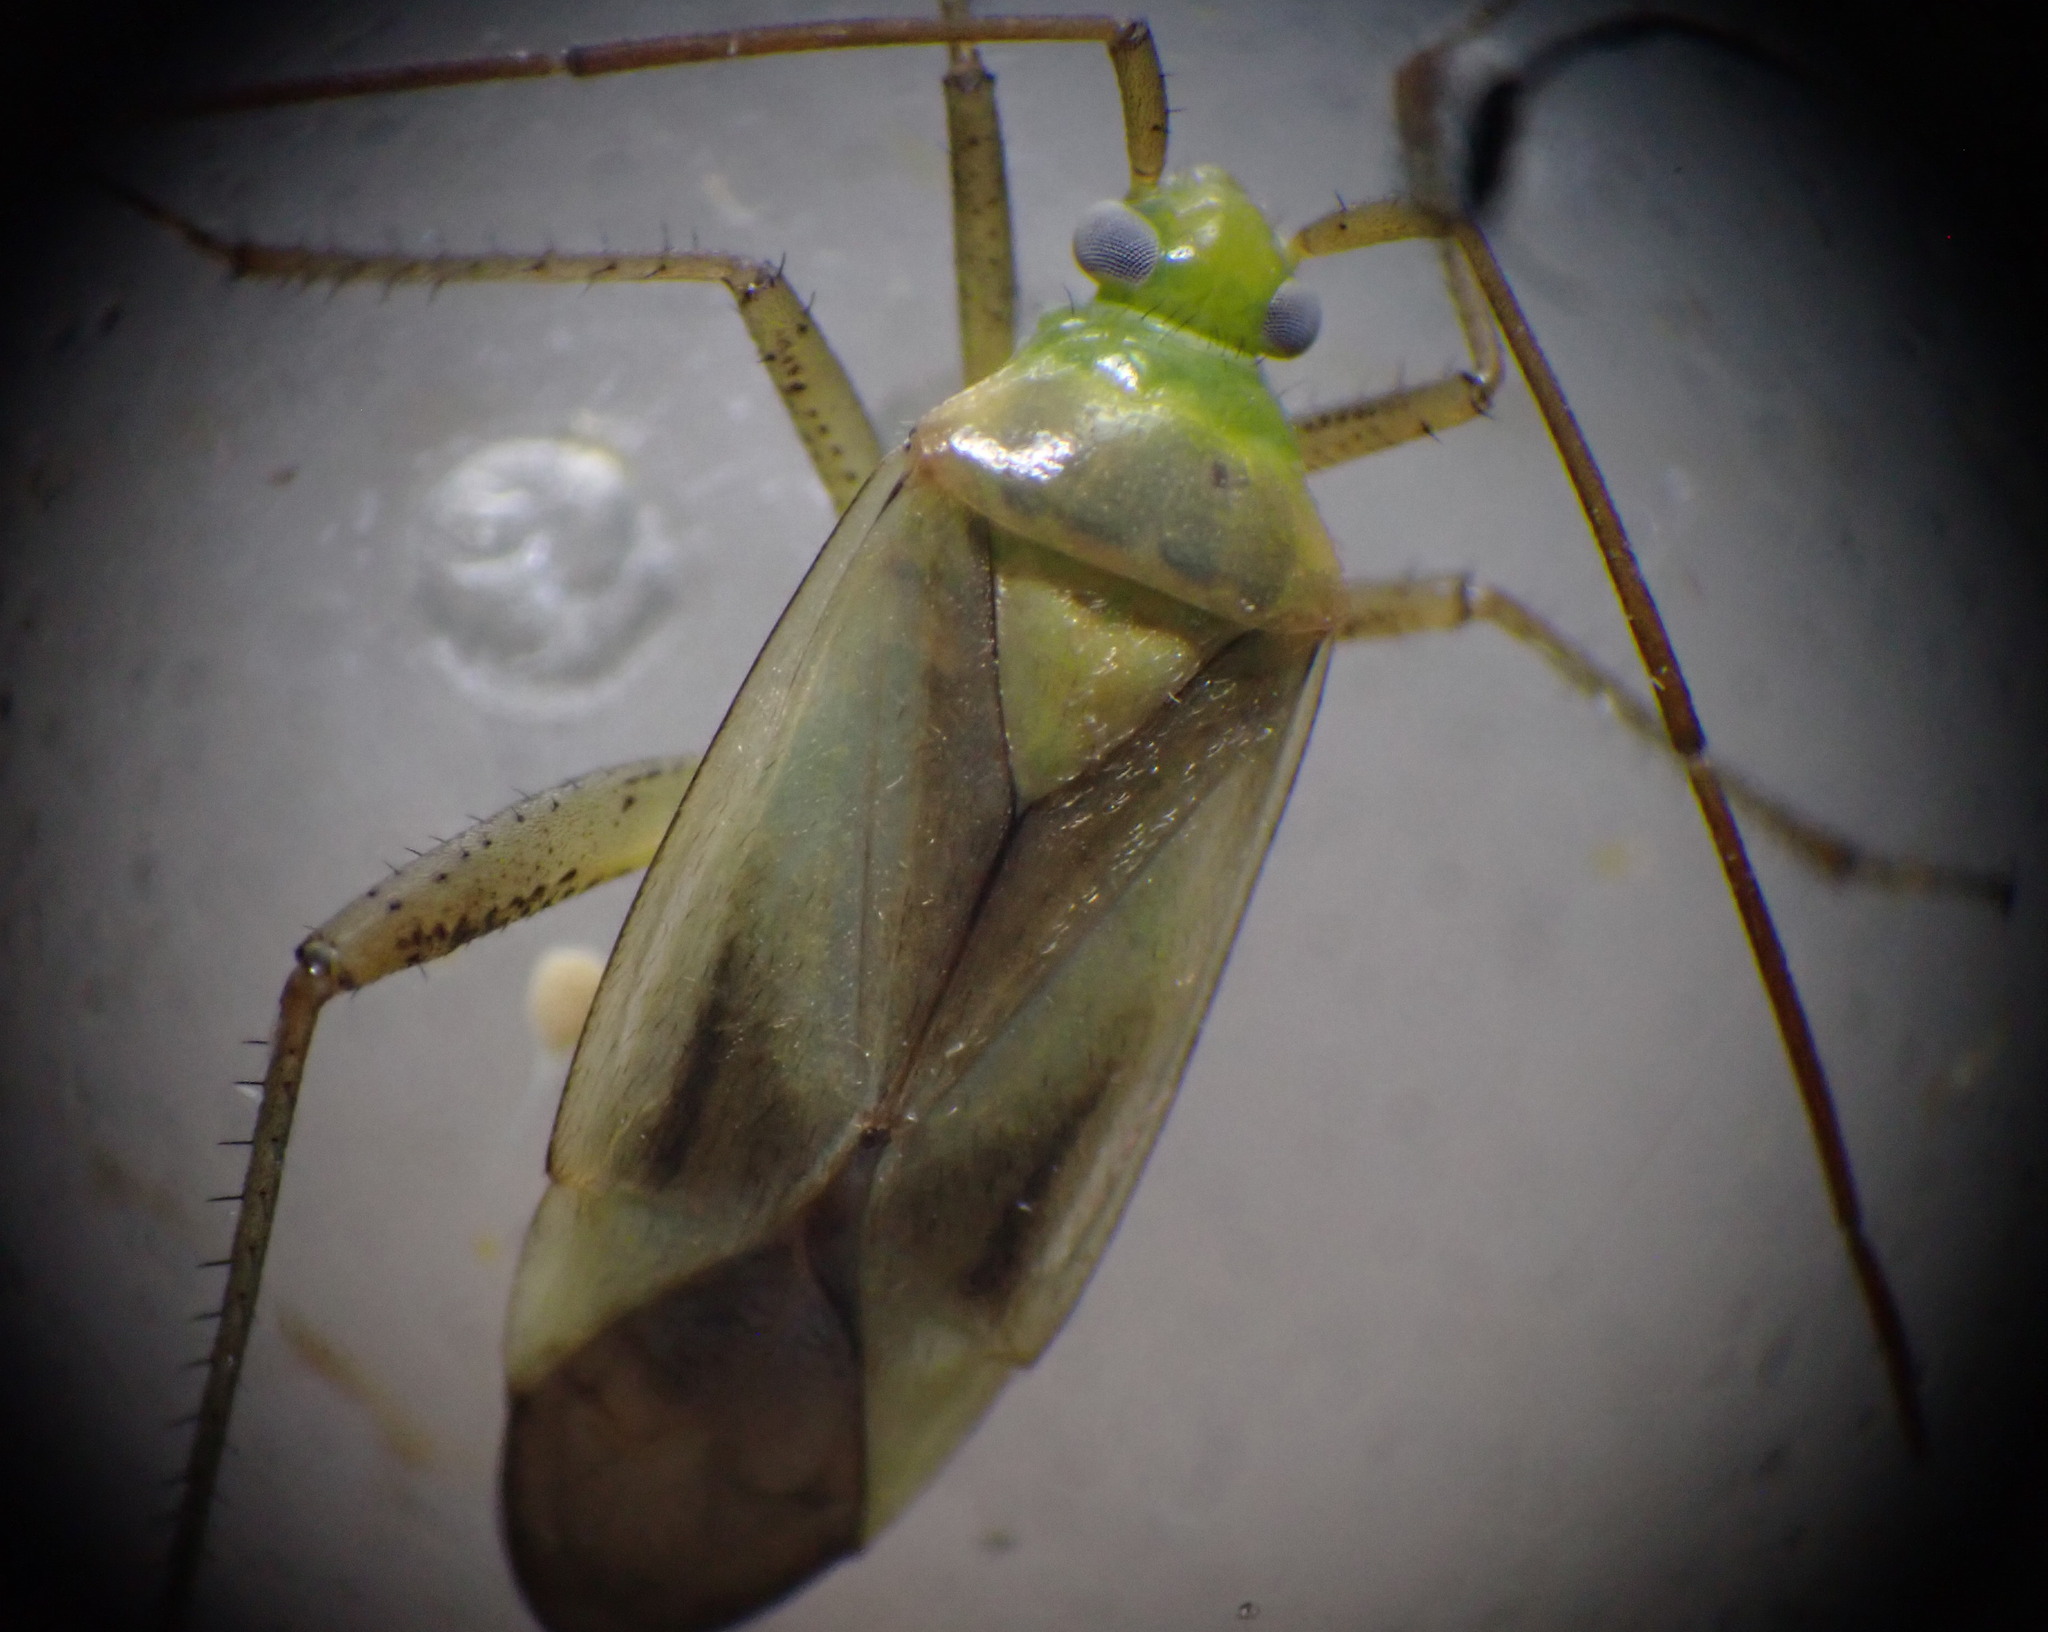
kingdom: Animalia
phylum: Arthropoda
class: Insecta
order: Hemiptera
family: Miridae
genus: Adelphocoris
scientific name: Adelphocoris lineolatus
